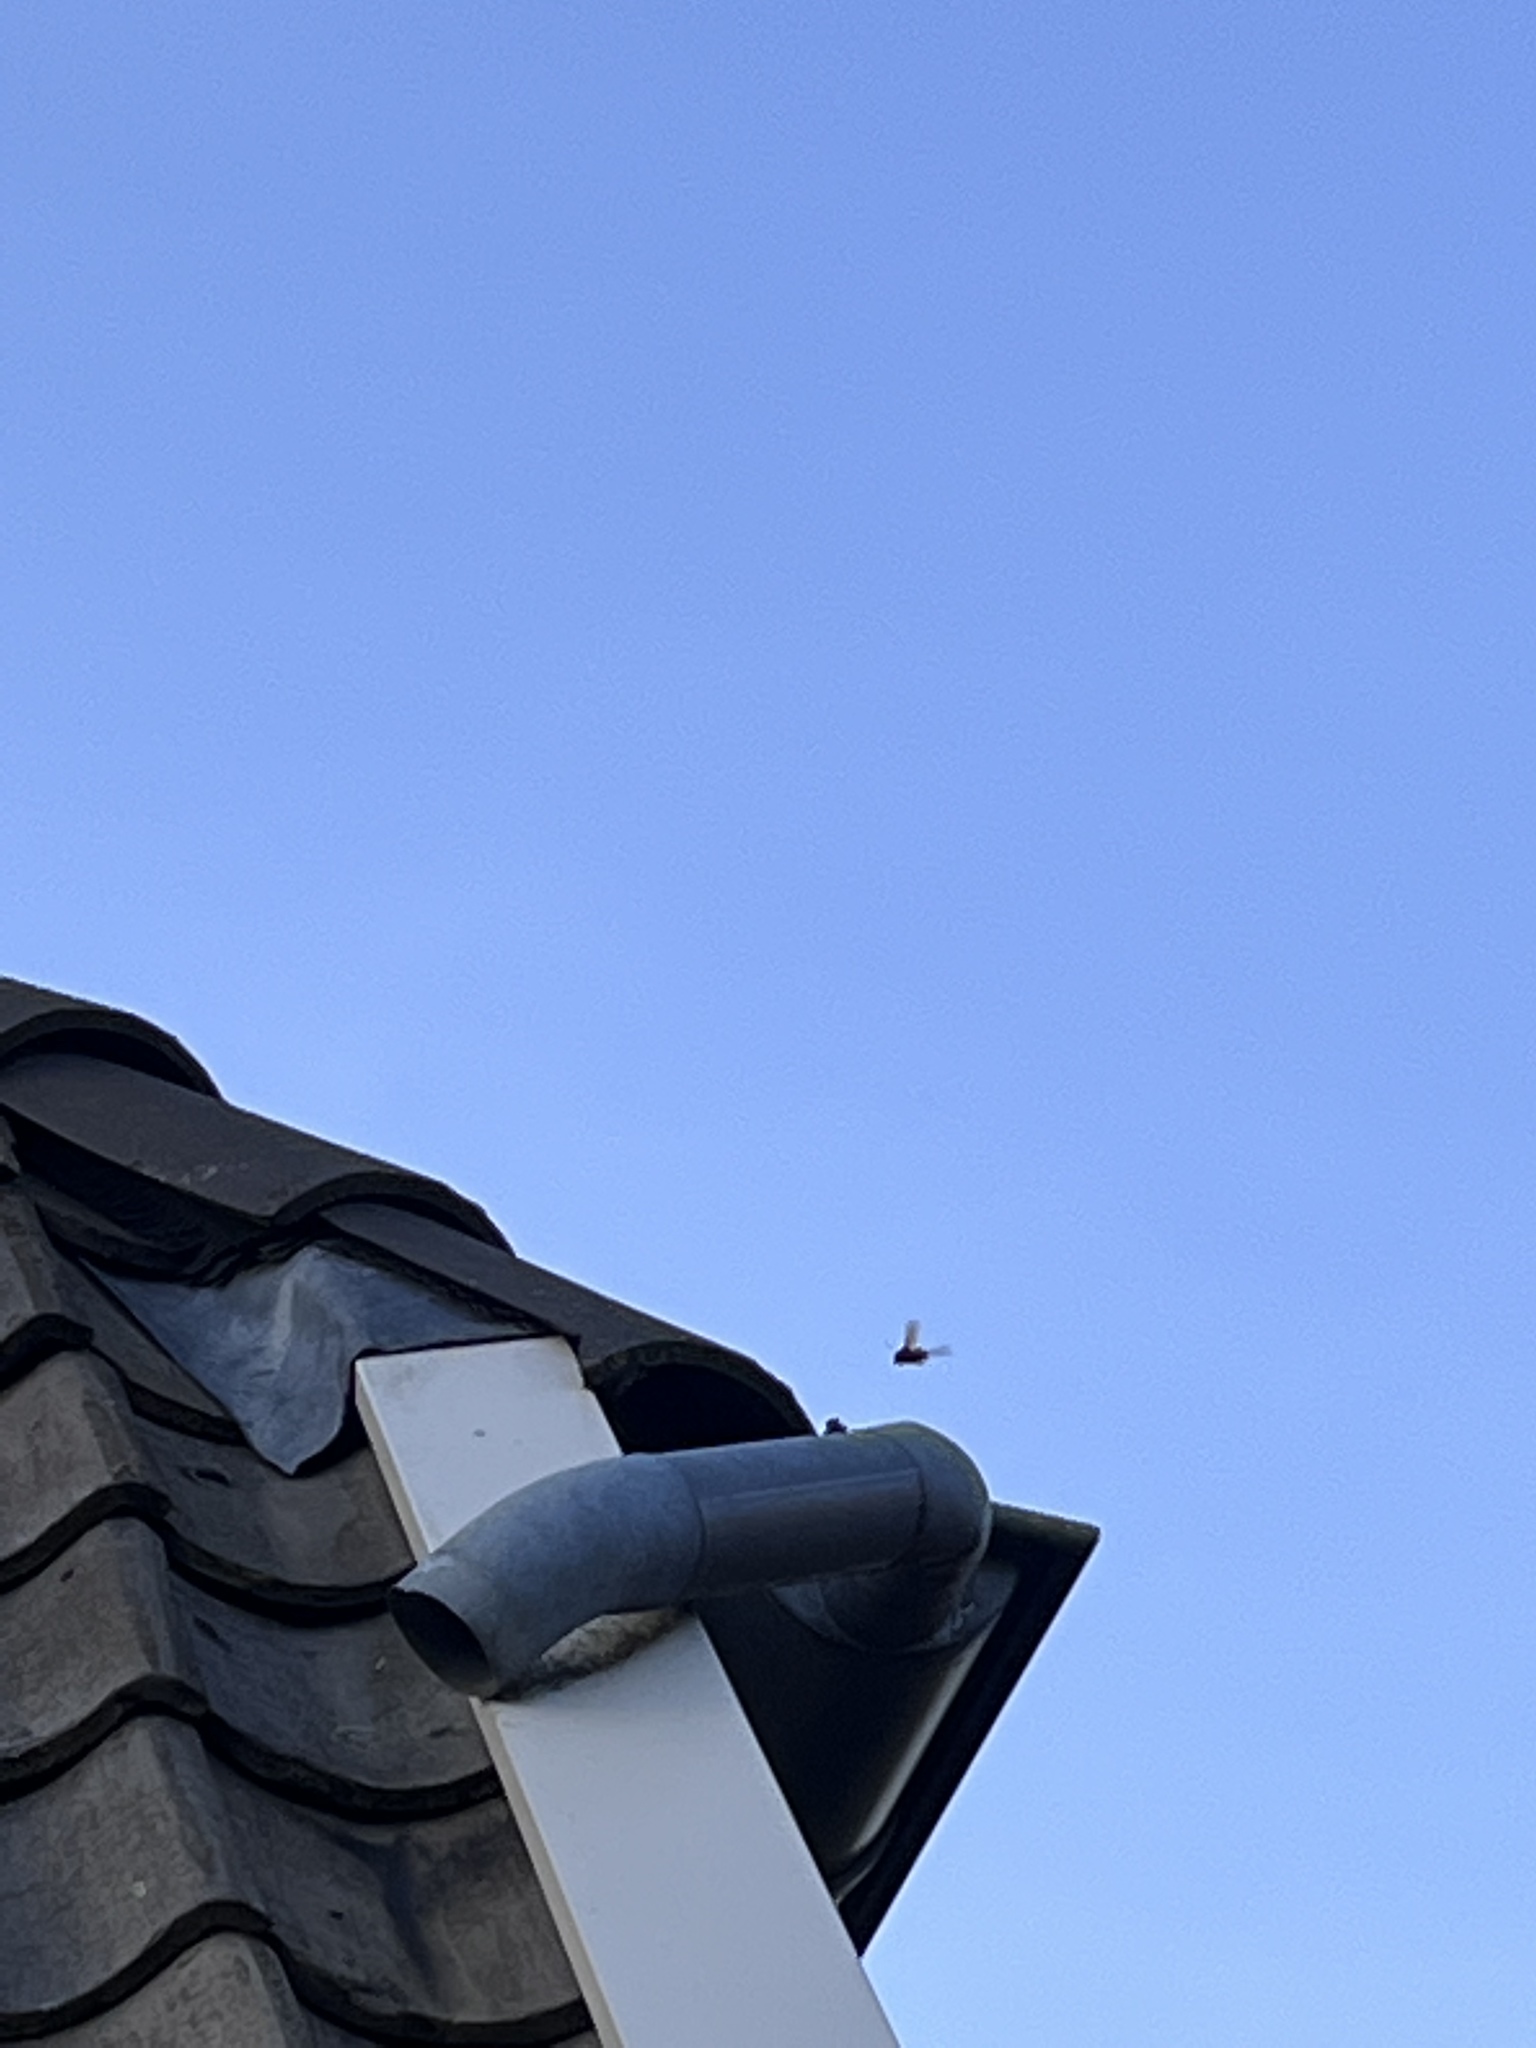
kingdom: Animalia
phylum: Arthropoda
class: Insecta
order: Hymenoptera
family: Vespidae
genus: Vespa
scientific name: Vespa crabro
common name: Hornet
